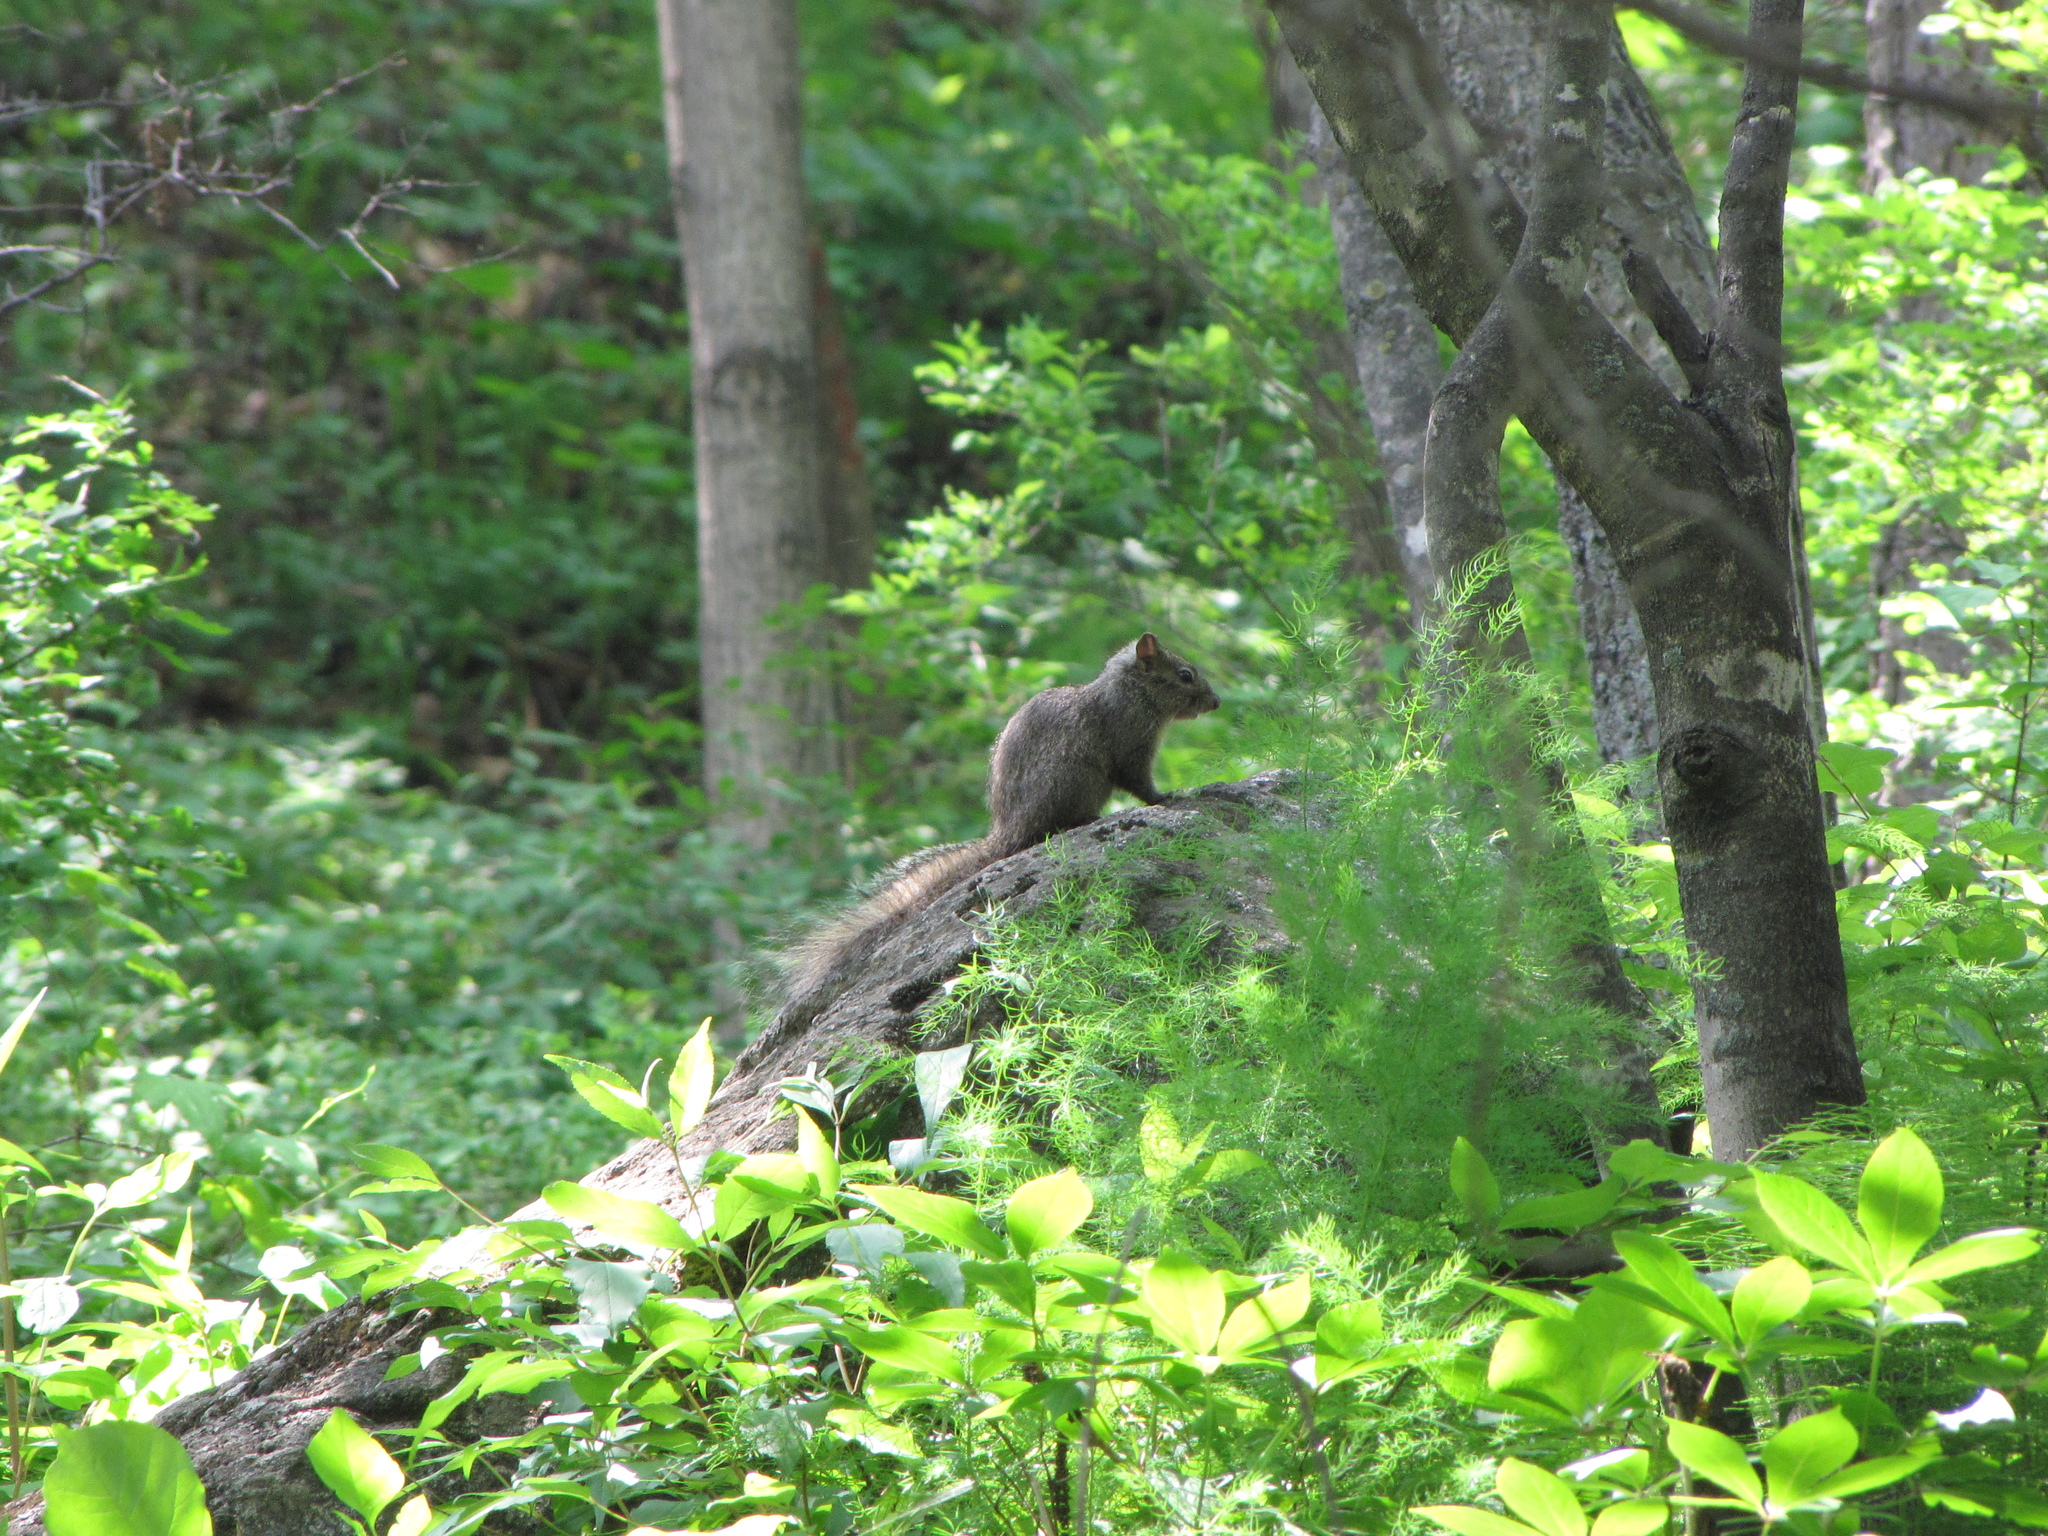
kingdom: Animalia
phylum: Chordata
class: Mammalia
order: Rodentia
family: Sciuridae
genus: Sciurotamias
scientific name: Sciurotamias davidianus
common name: Père david's rock squirrel
